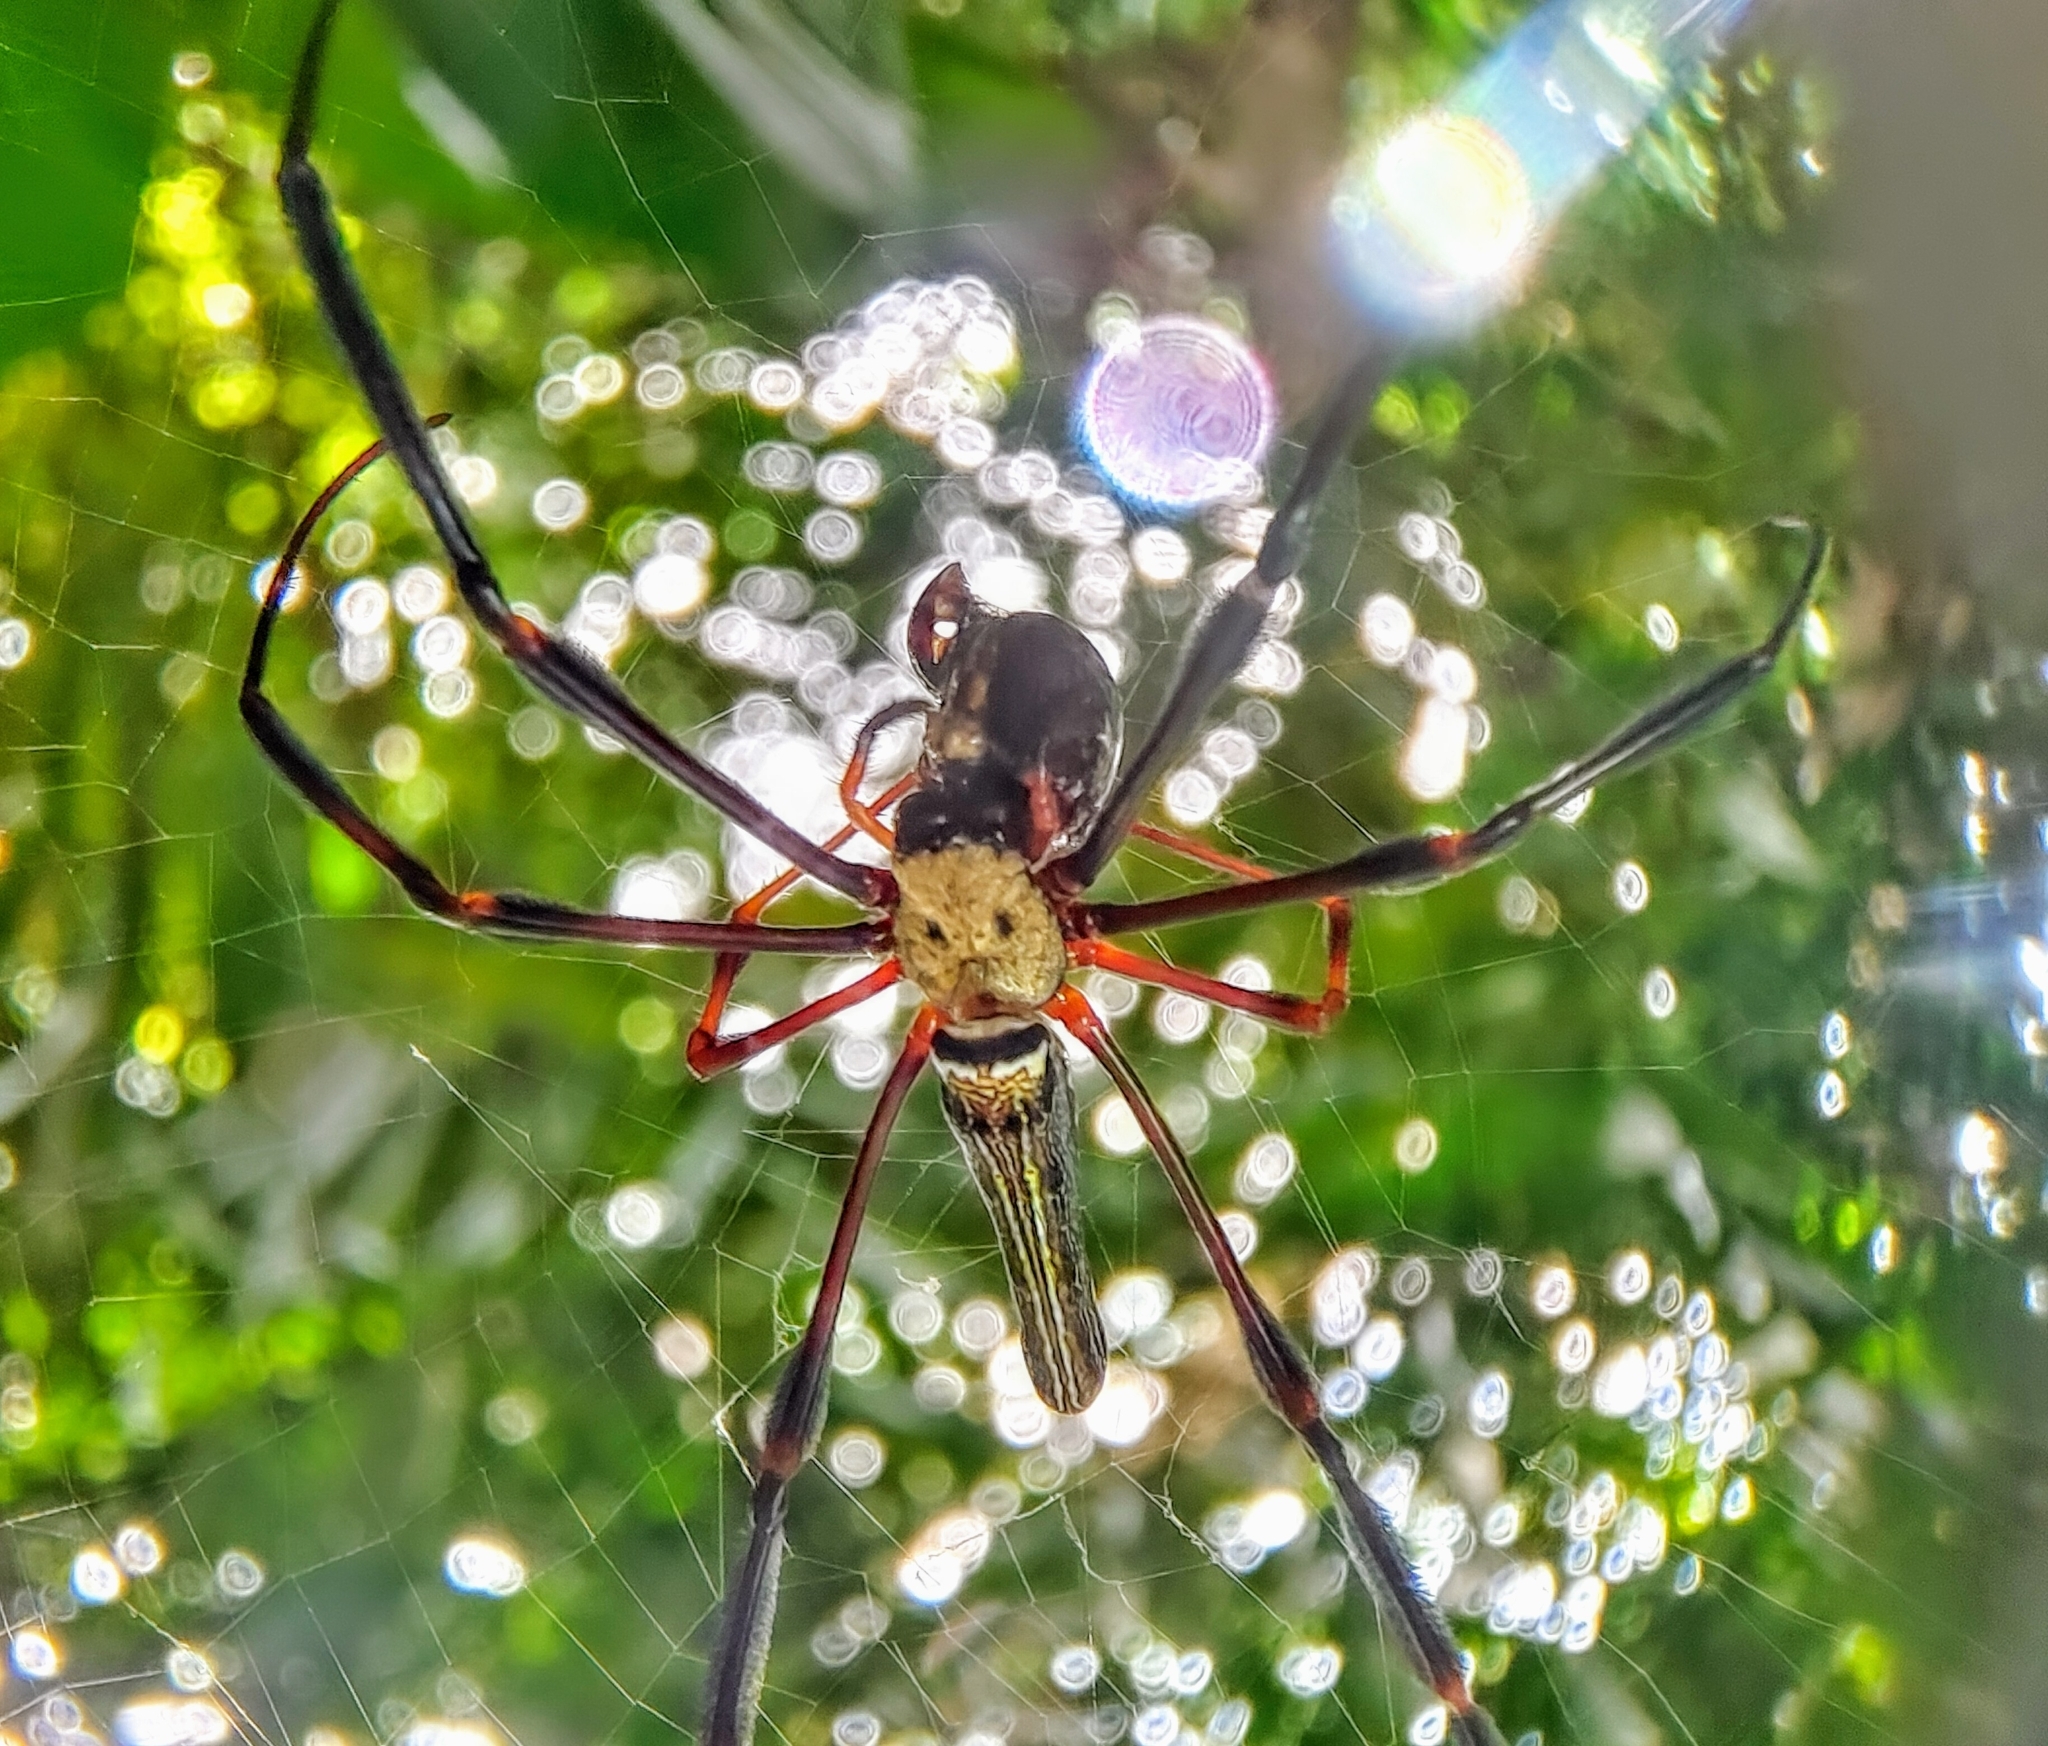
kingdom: Animalia
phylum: Arthropoda
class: Arachnida
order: Araneae
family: Araneidae
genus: Nephila
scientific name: Nephila pilipes
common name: Giant golden orb weaver
